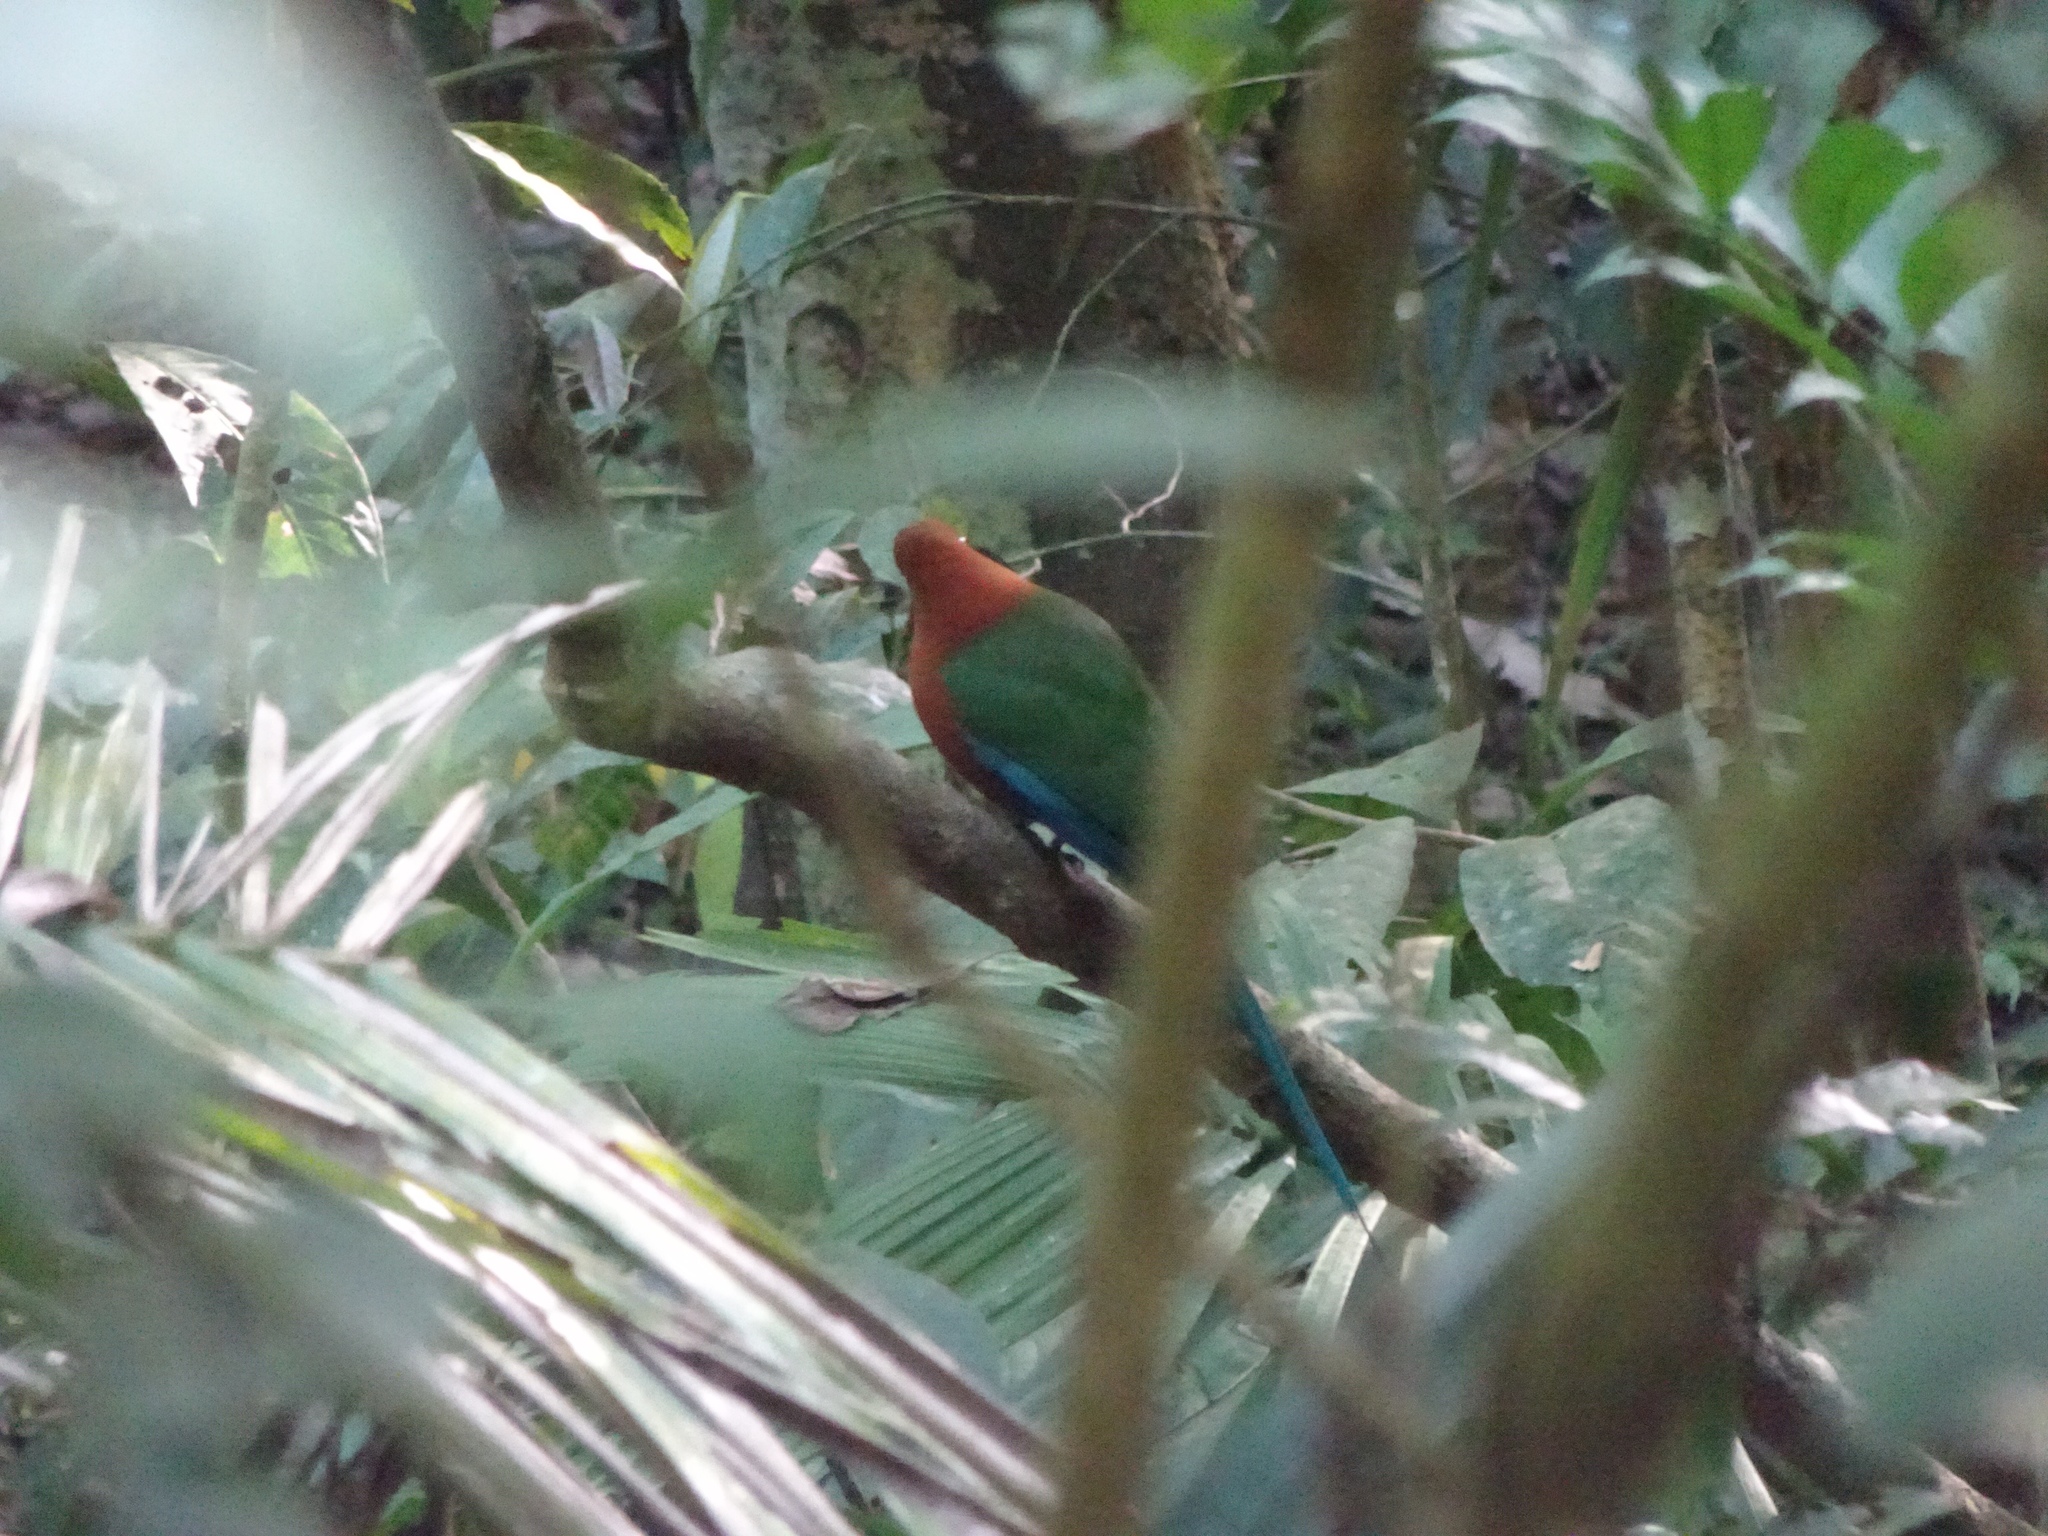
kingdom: Animalia
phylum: Chordata
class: Aves
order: Coraciiformes
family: Momotidae
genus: Baryphthengus
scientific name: Baryphthengus martii
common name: Rufous motmot
